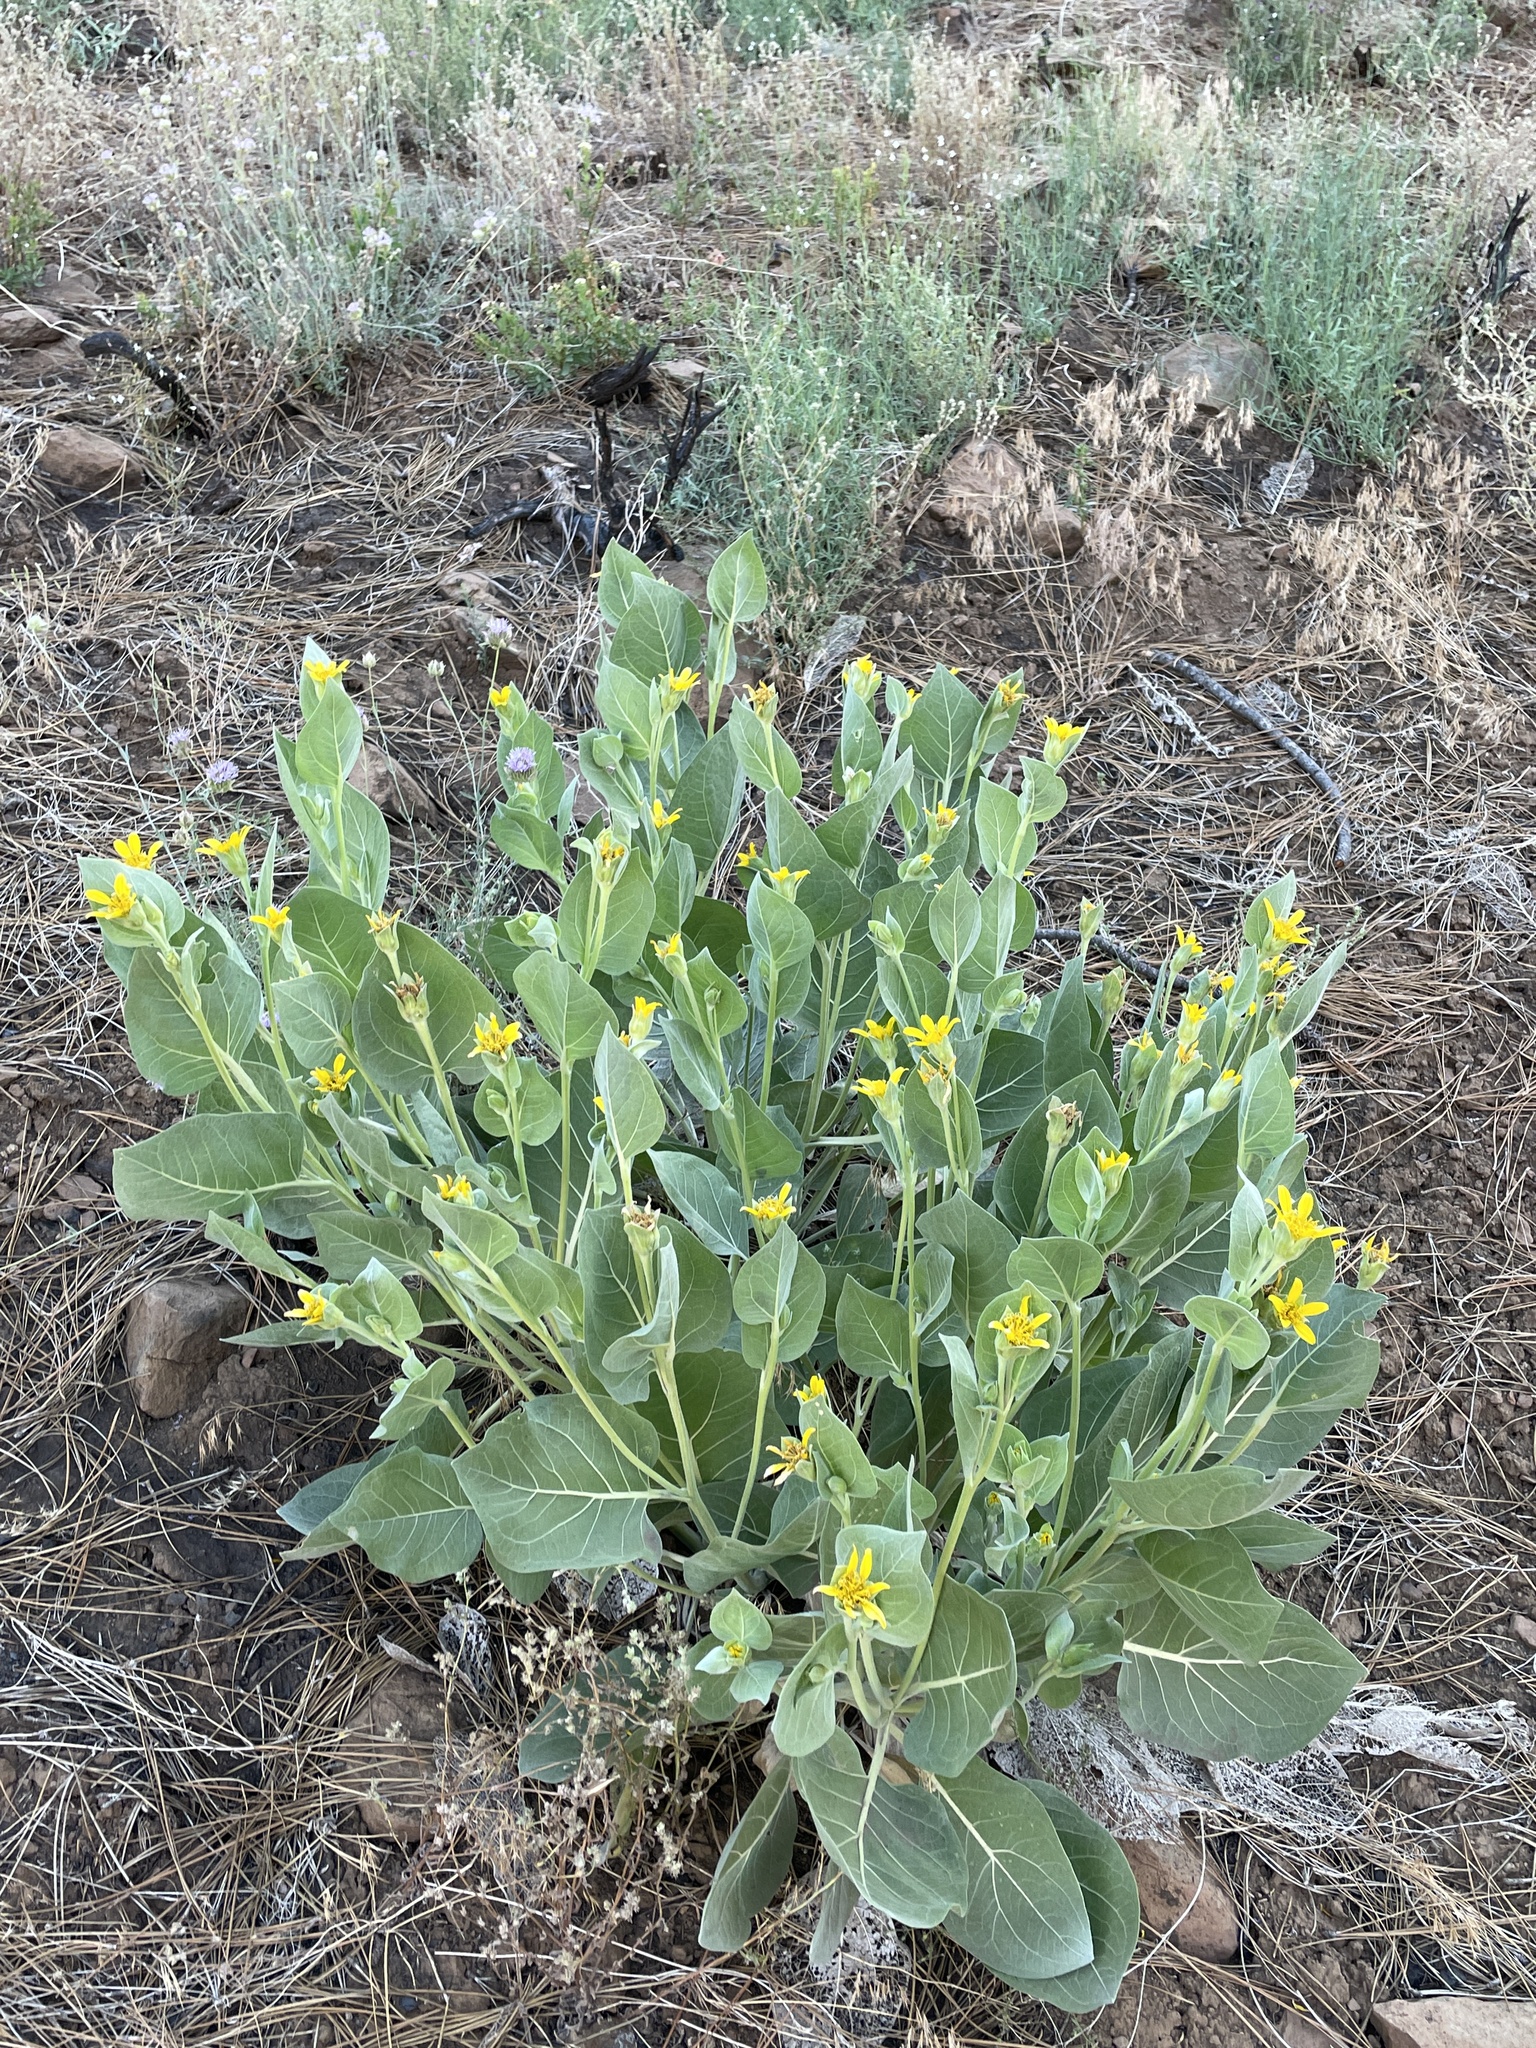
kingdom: Plantae
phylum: Tracheophyta
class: Magnoliopsida
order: Asterales
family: Asteraceae
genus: Agnorhiza
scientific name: Agnorhiza ovata
